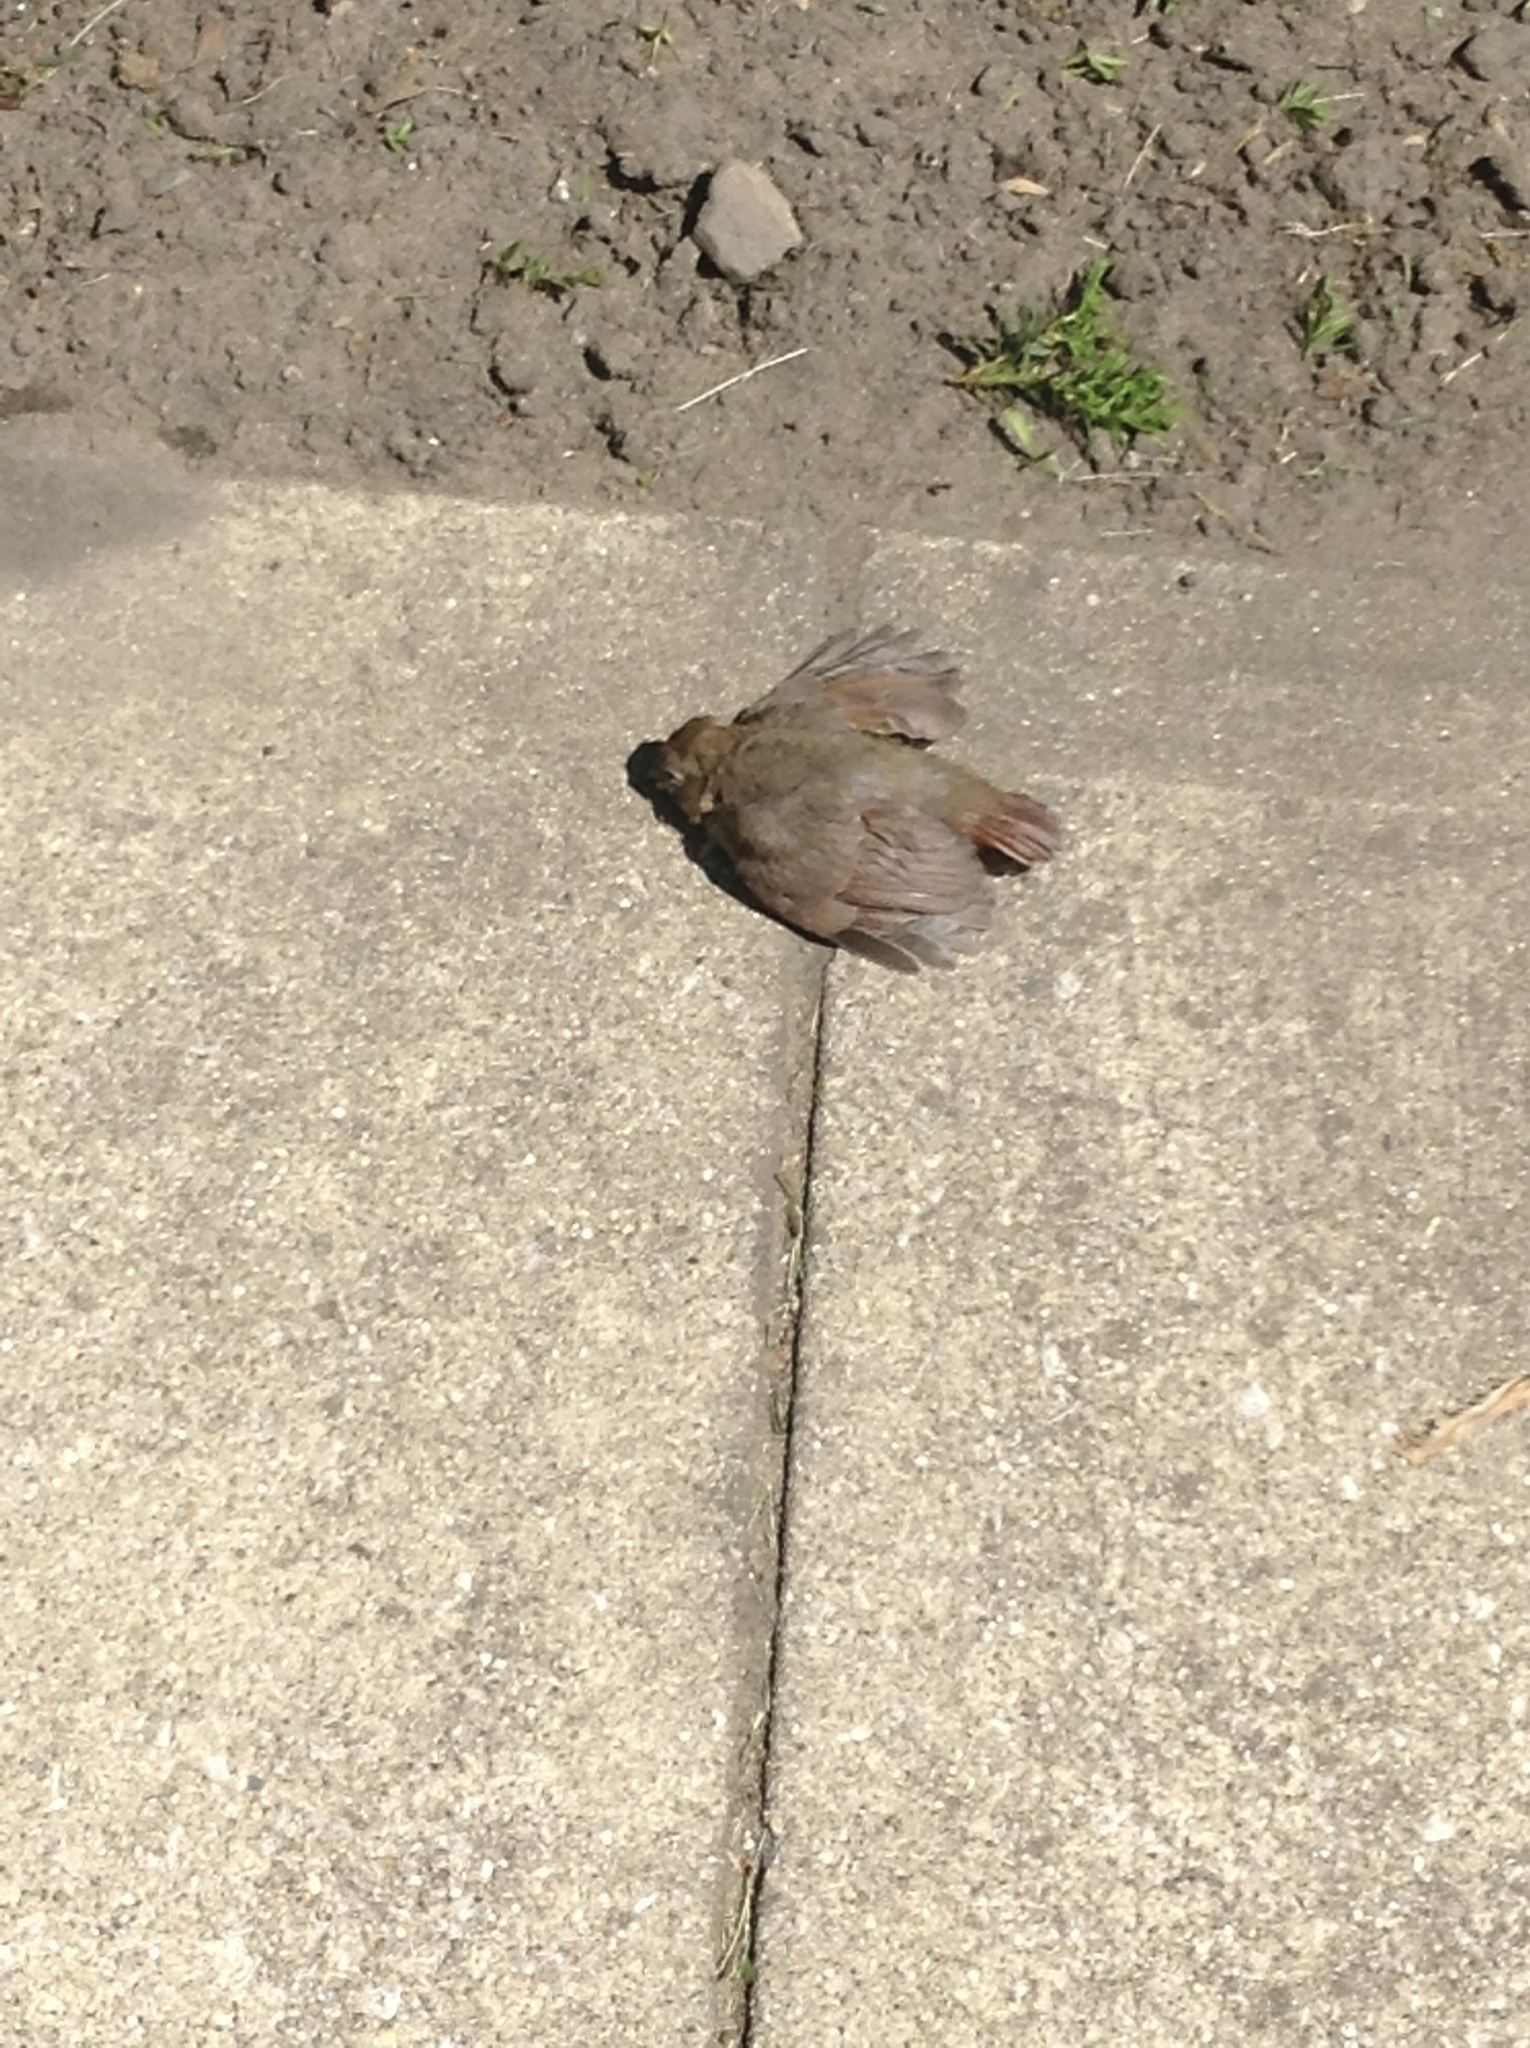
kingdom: Animalia
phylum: Chordata
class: Aves
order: Passeriformes
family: Cardinalidae
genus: Cardinalis
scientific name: Cardinalis cardinalis
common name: Northern cardinal
